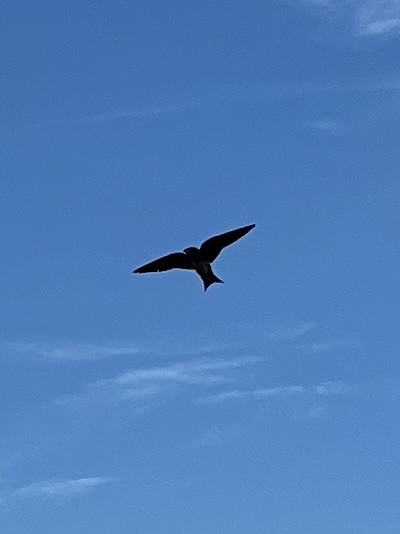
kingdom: Animalia
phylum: Chordata
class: Aves
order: Passeriformes
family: Hirundinidae
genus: Progne
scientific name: Progne subis
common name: Purple martin
